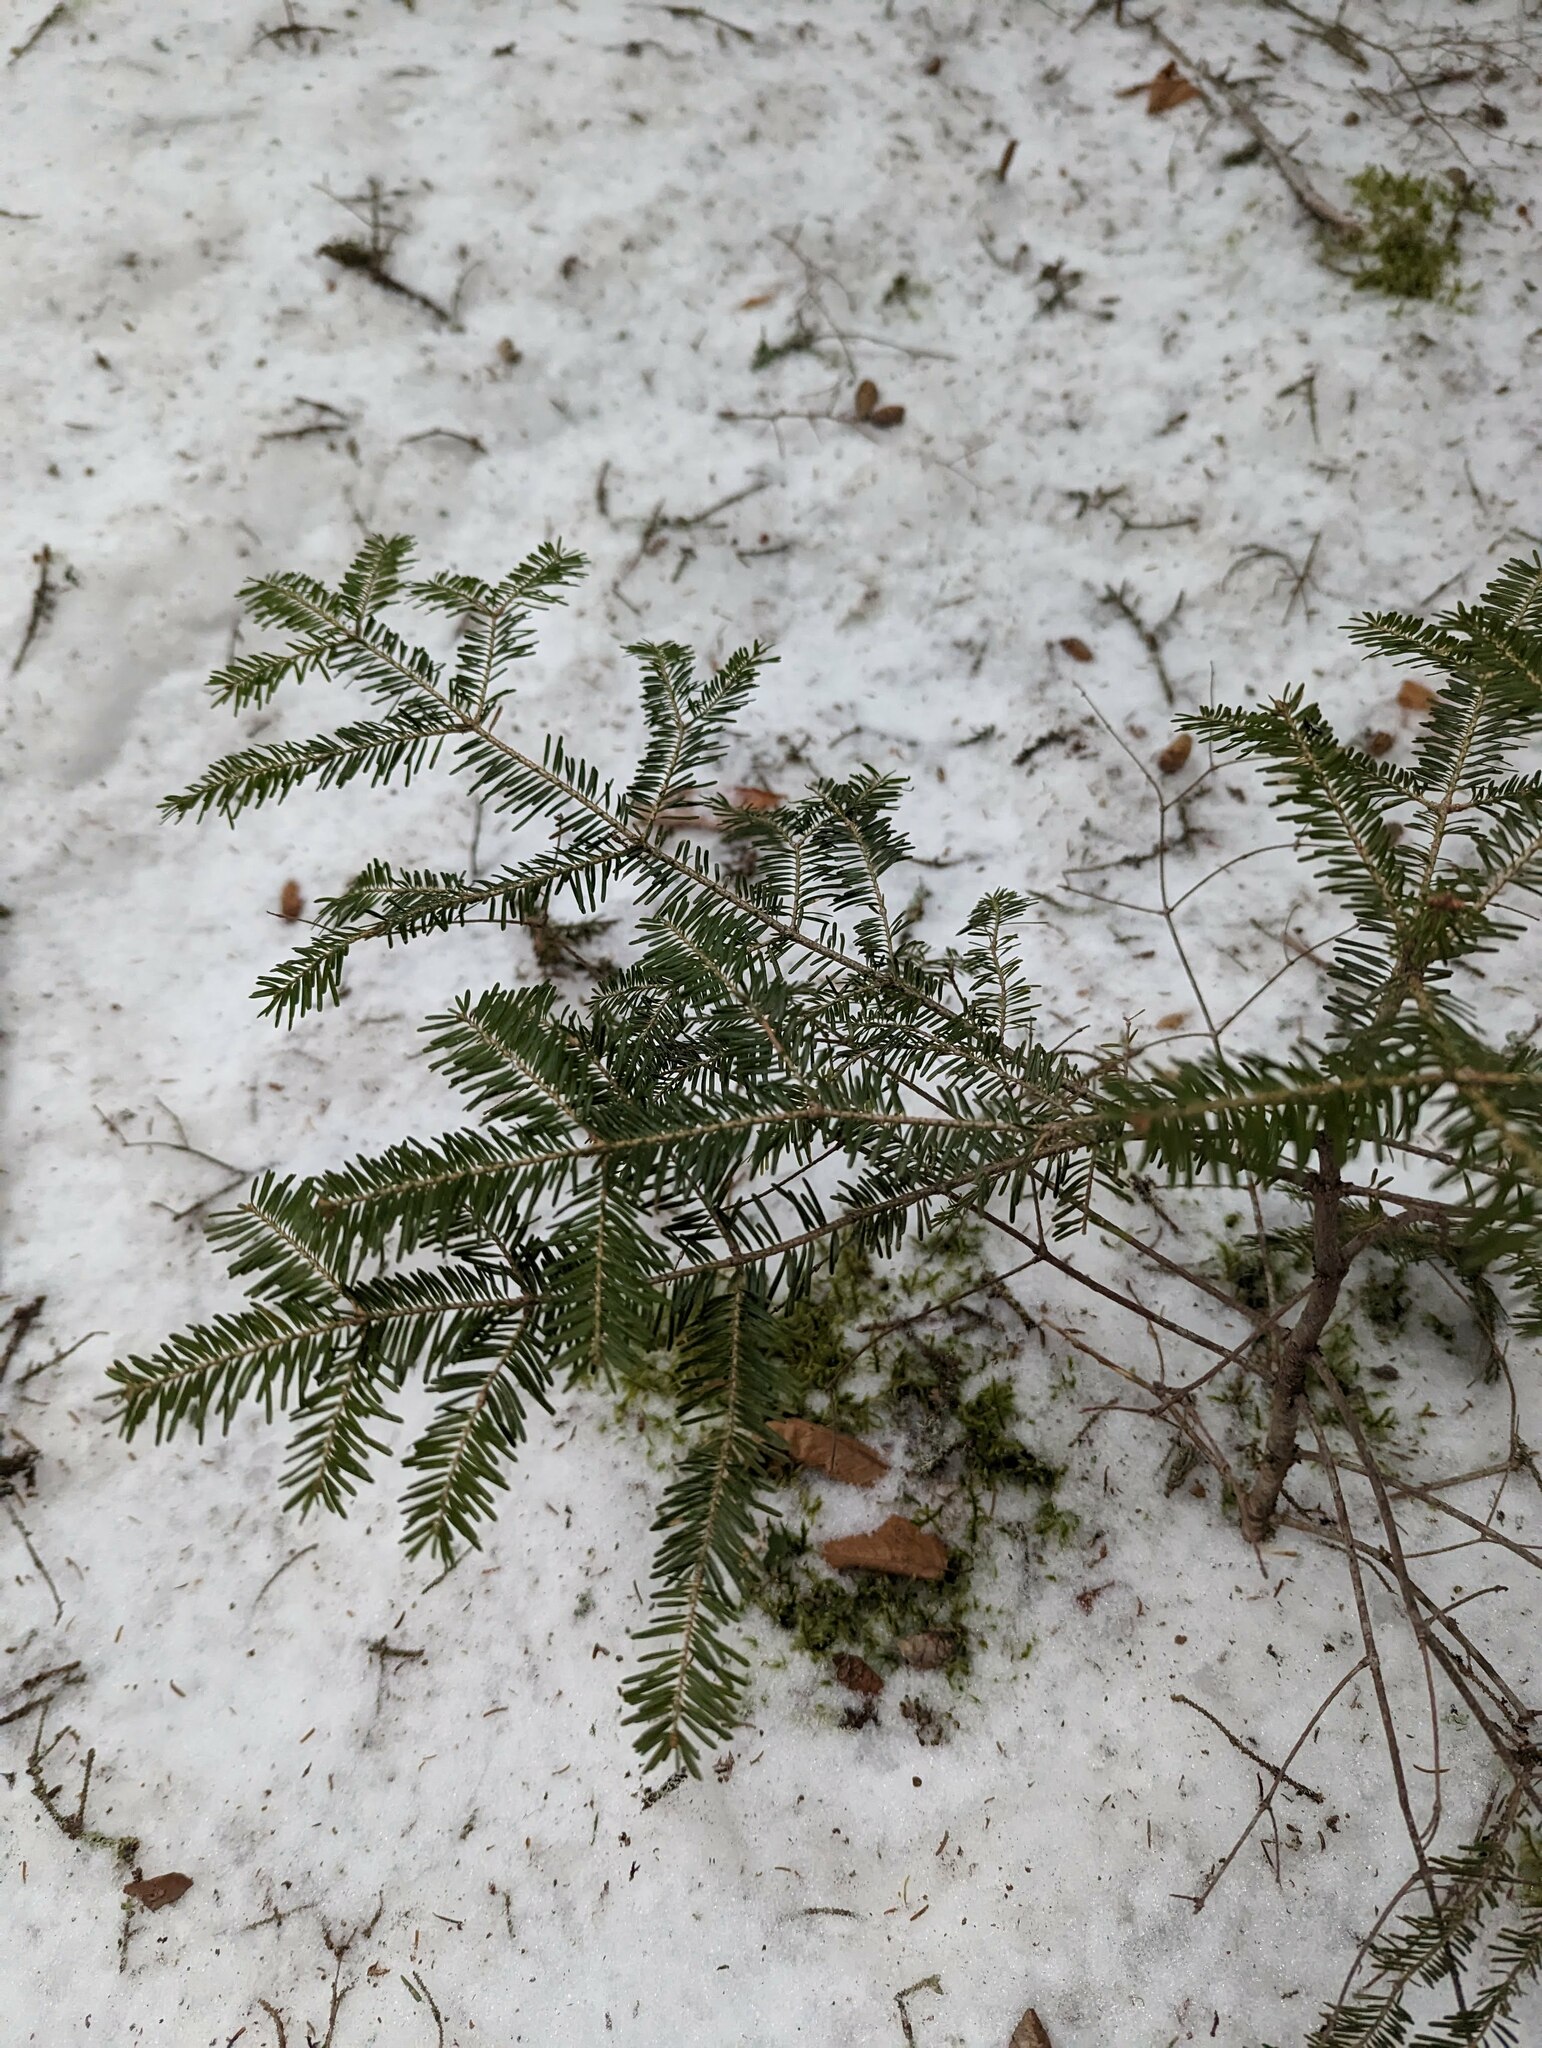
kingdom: Plantae
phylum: Tracheophyta
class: Pinopsida
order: Pinales
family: Pinaceae
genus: Abies
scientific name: Abies balsamea
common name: Balsam fir
